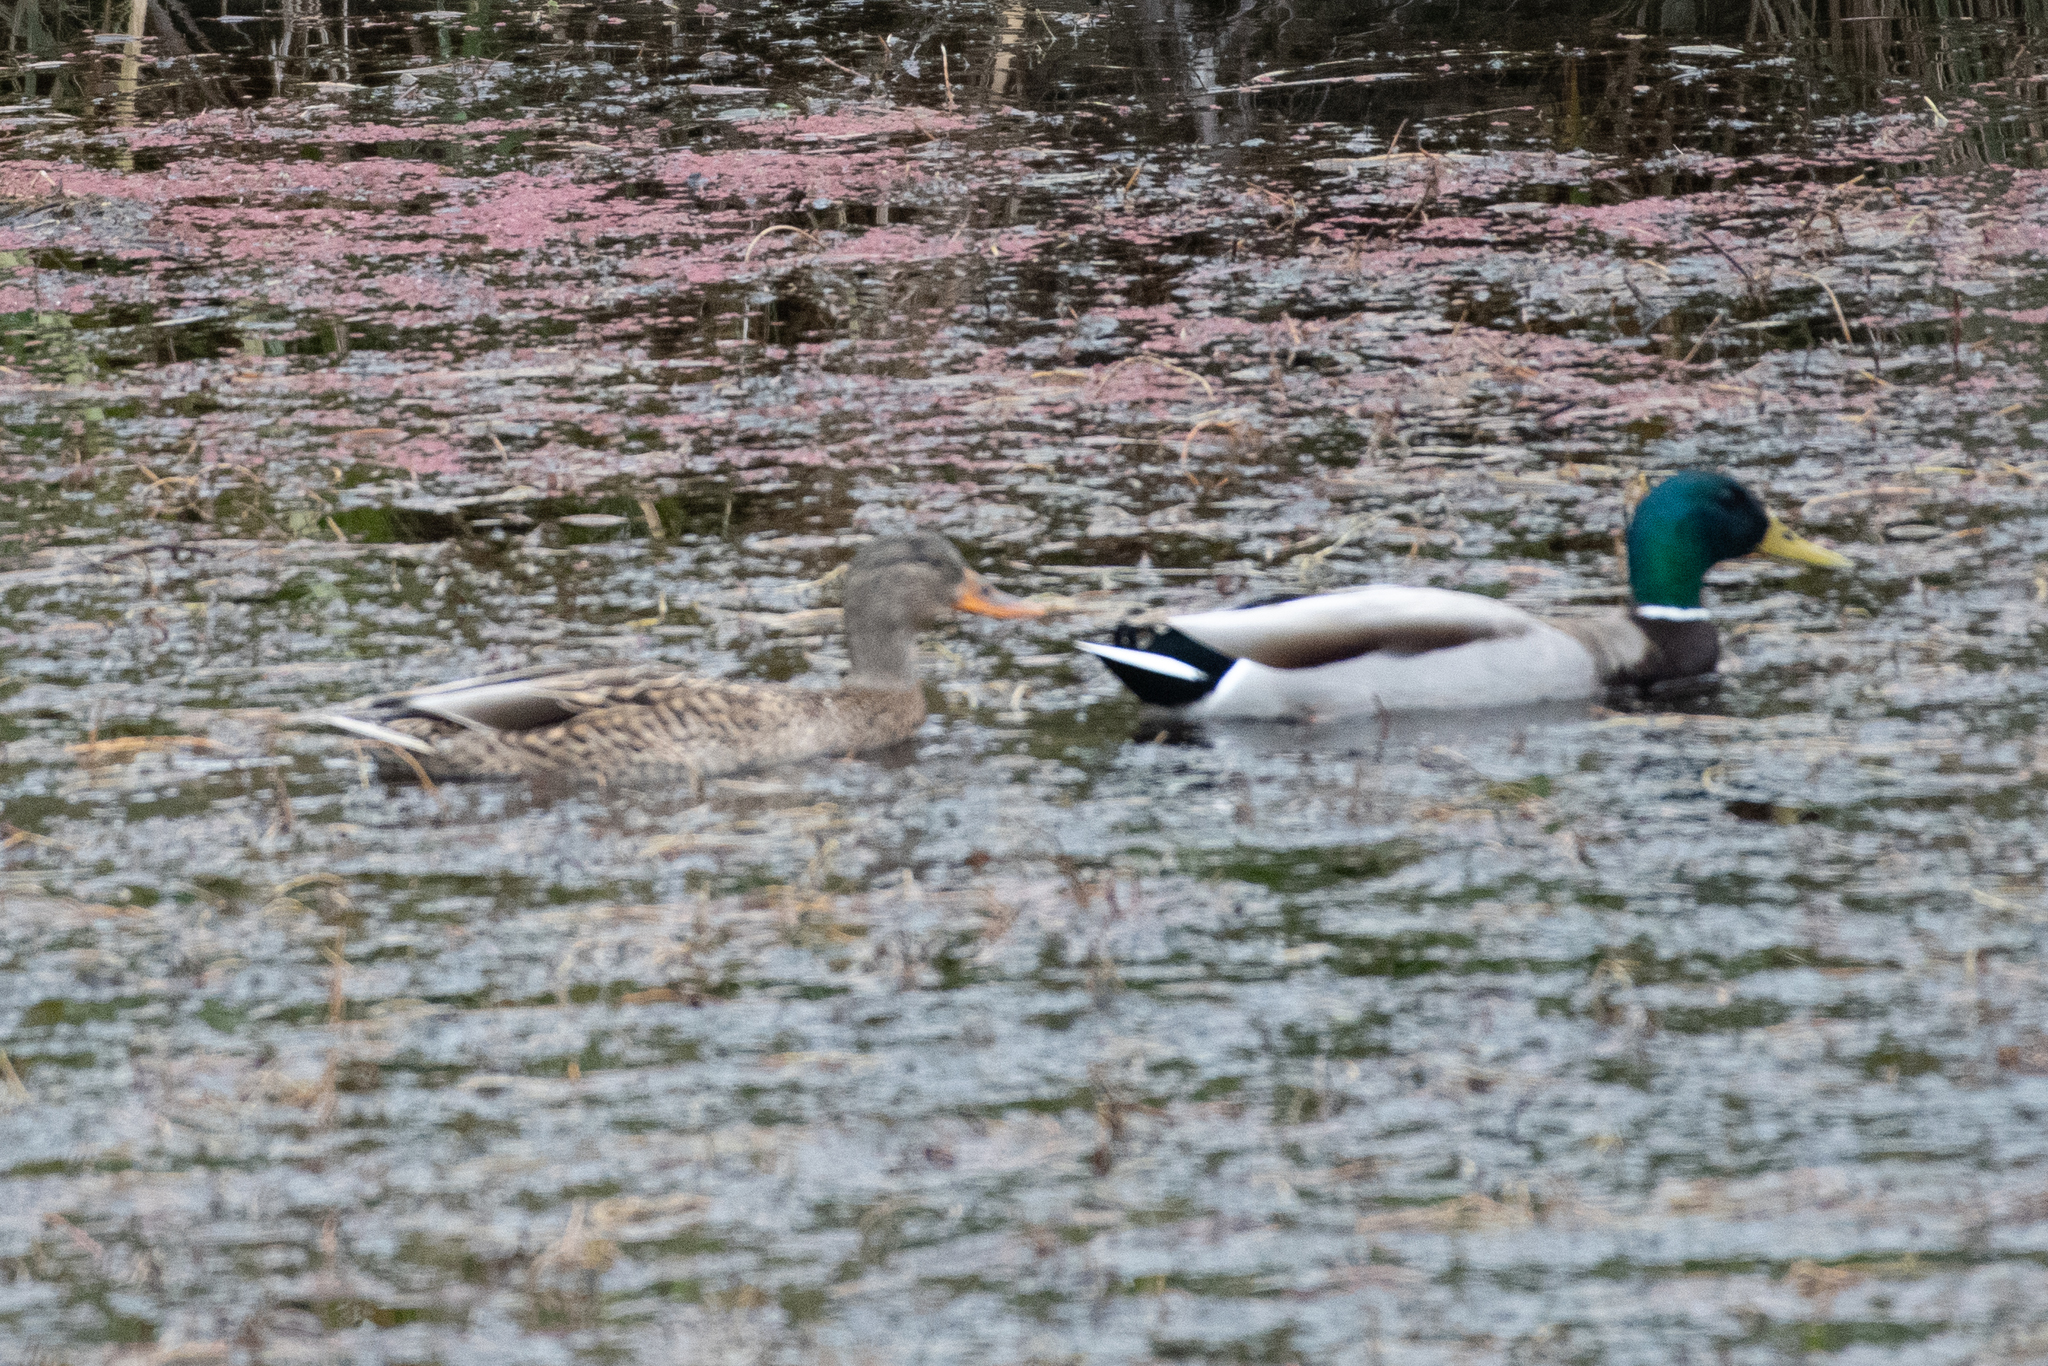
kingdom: Animalia
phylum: Chordata
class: Aves
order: Anseriformes
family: Anatidae
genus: Anas
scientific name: Anas platyrhynchos
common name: Mallard
